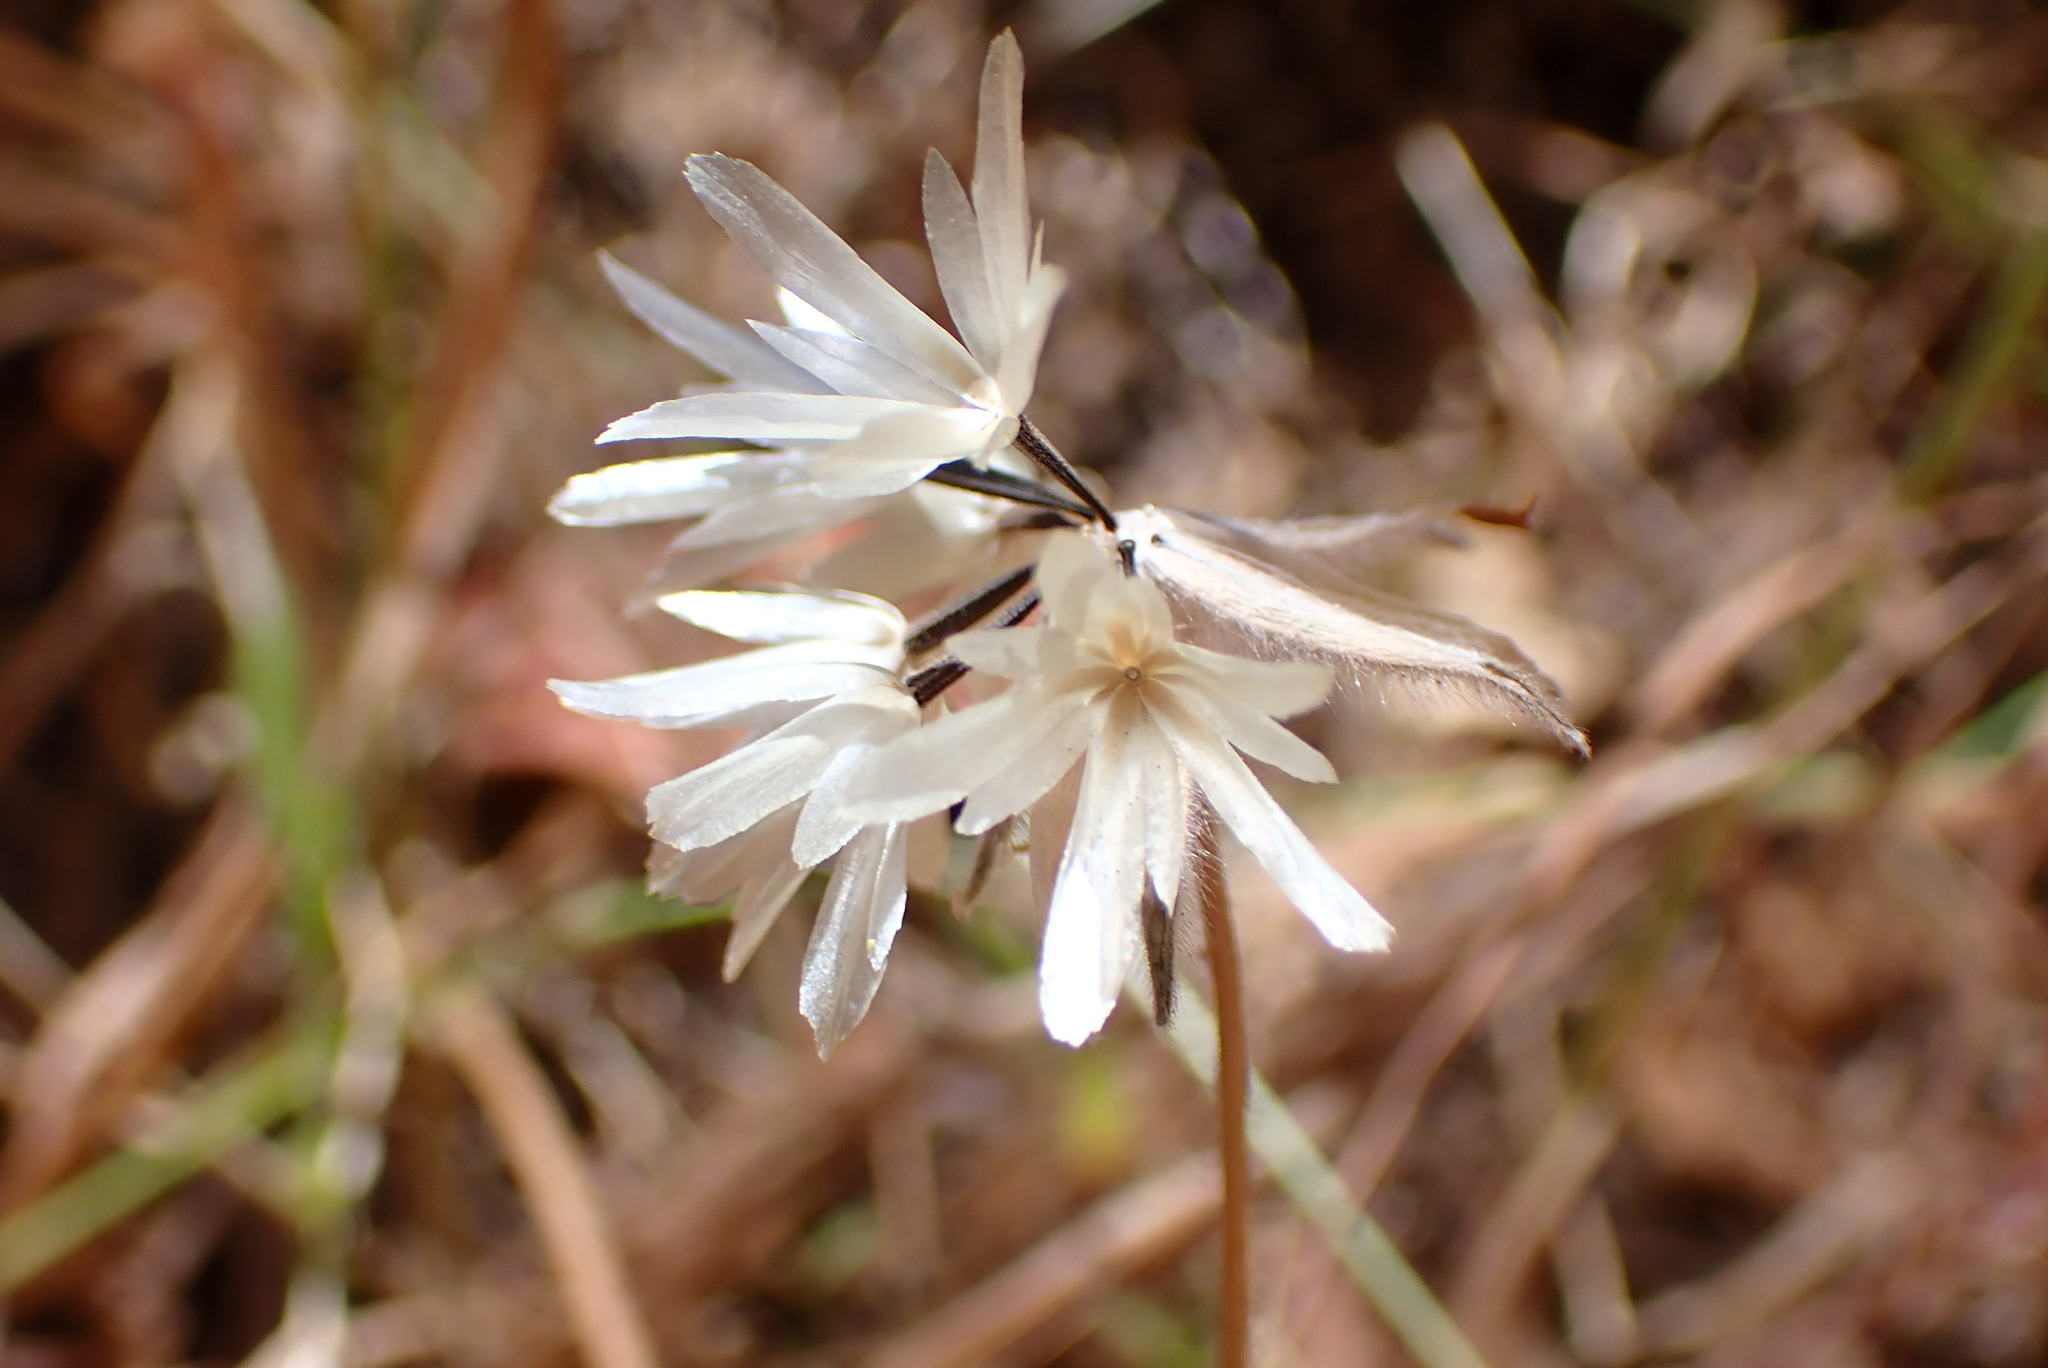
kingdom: Plantae
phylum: Tracheophyta
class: Magnoliopsida
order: Asterales
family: Asteraceae
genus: Achyrachaena
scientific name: Achyrachaena mollis
